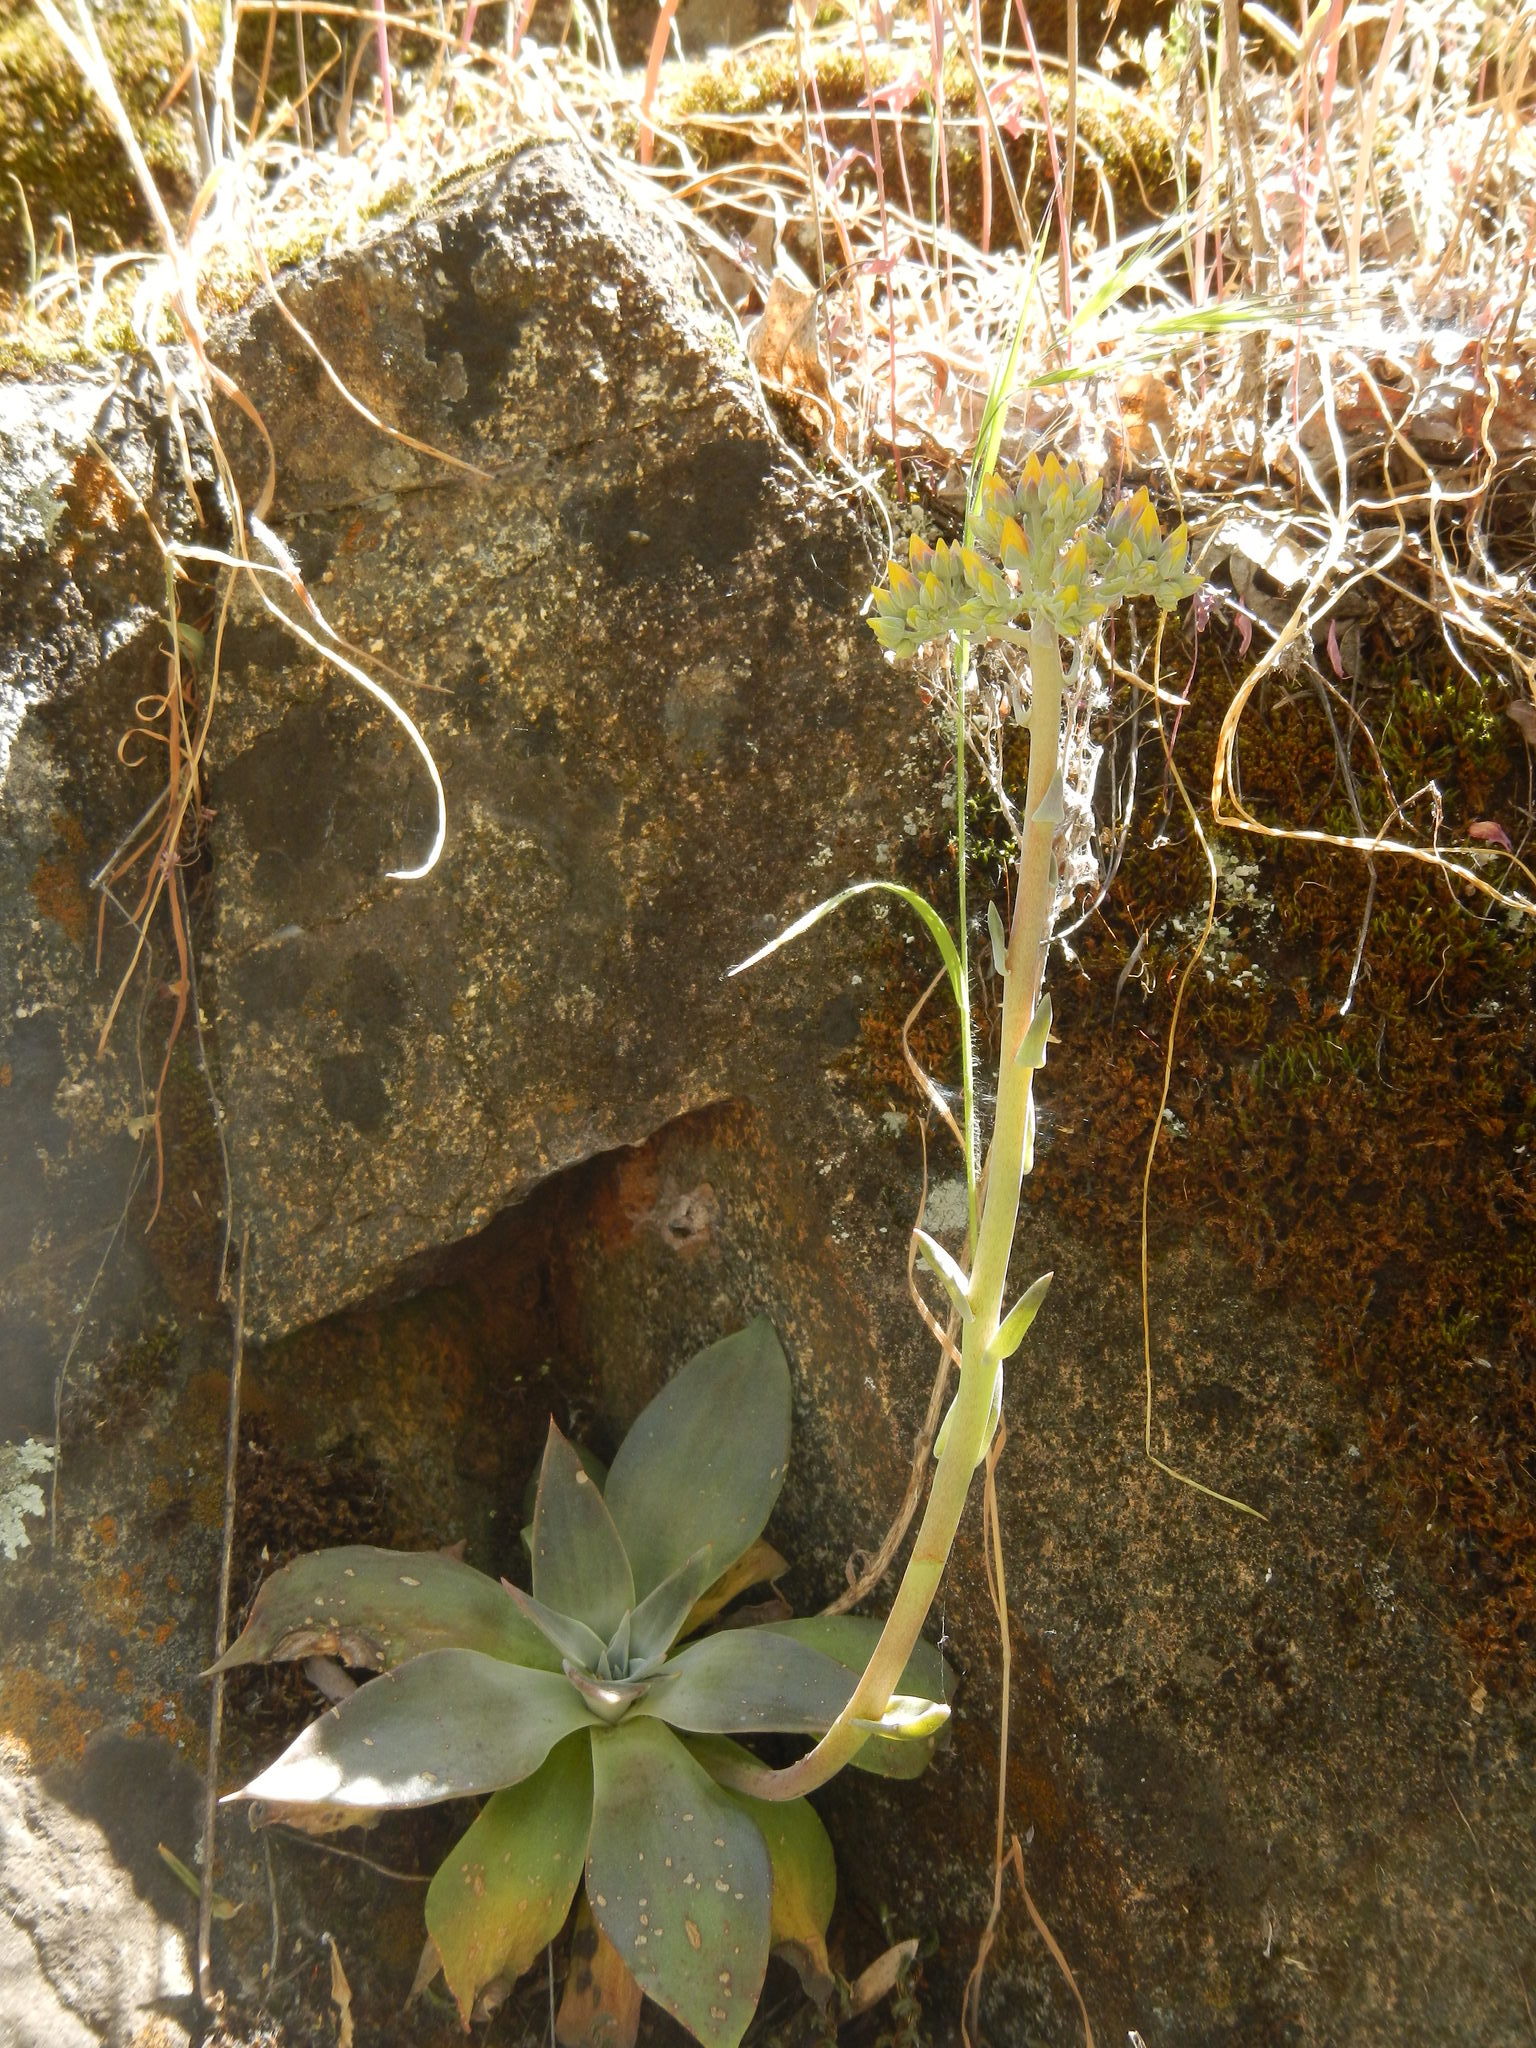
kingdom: Plantae
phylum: Tracheophyta
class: Magnoliopsida
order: Saxifragales
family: Crassulaceae
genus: Dudleya
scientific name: Dudleya cymosa
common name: Canyon dudleya
